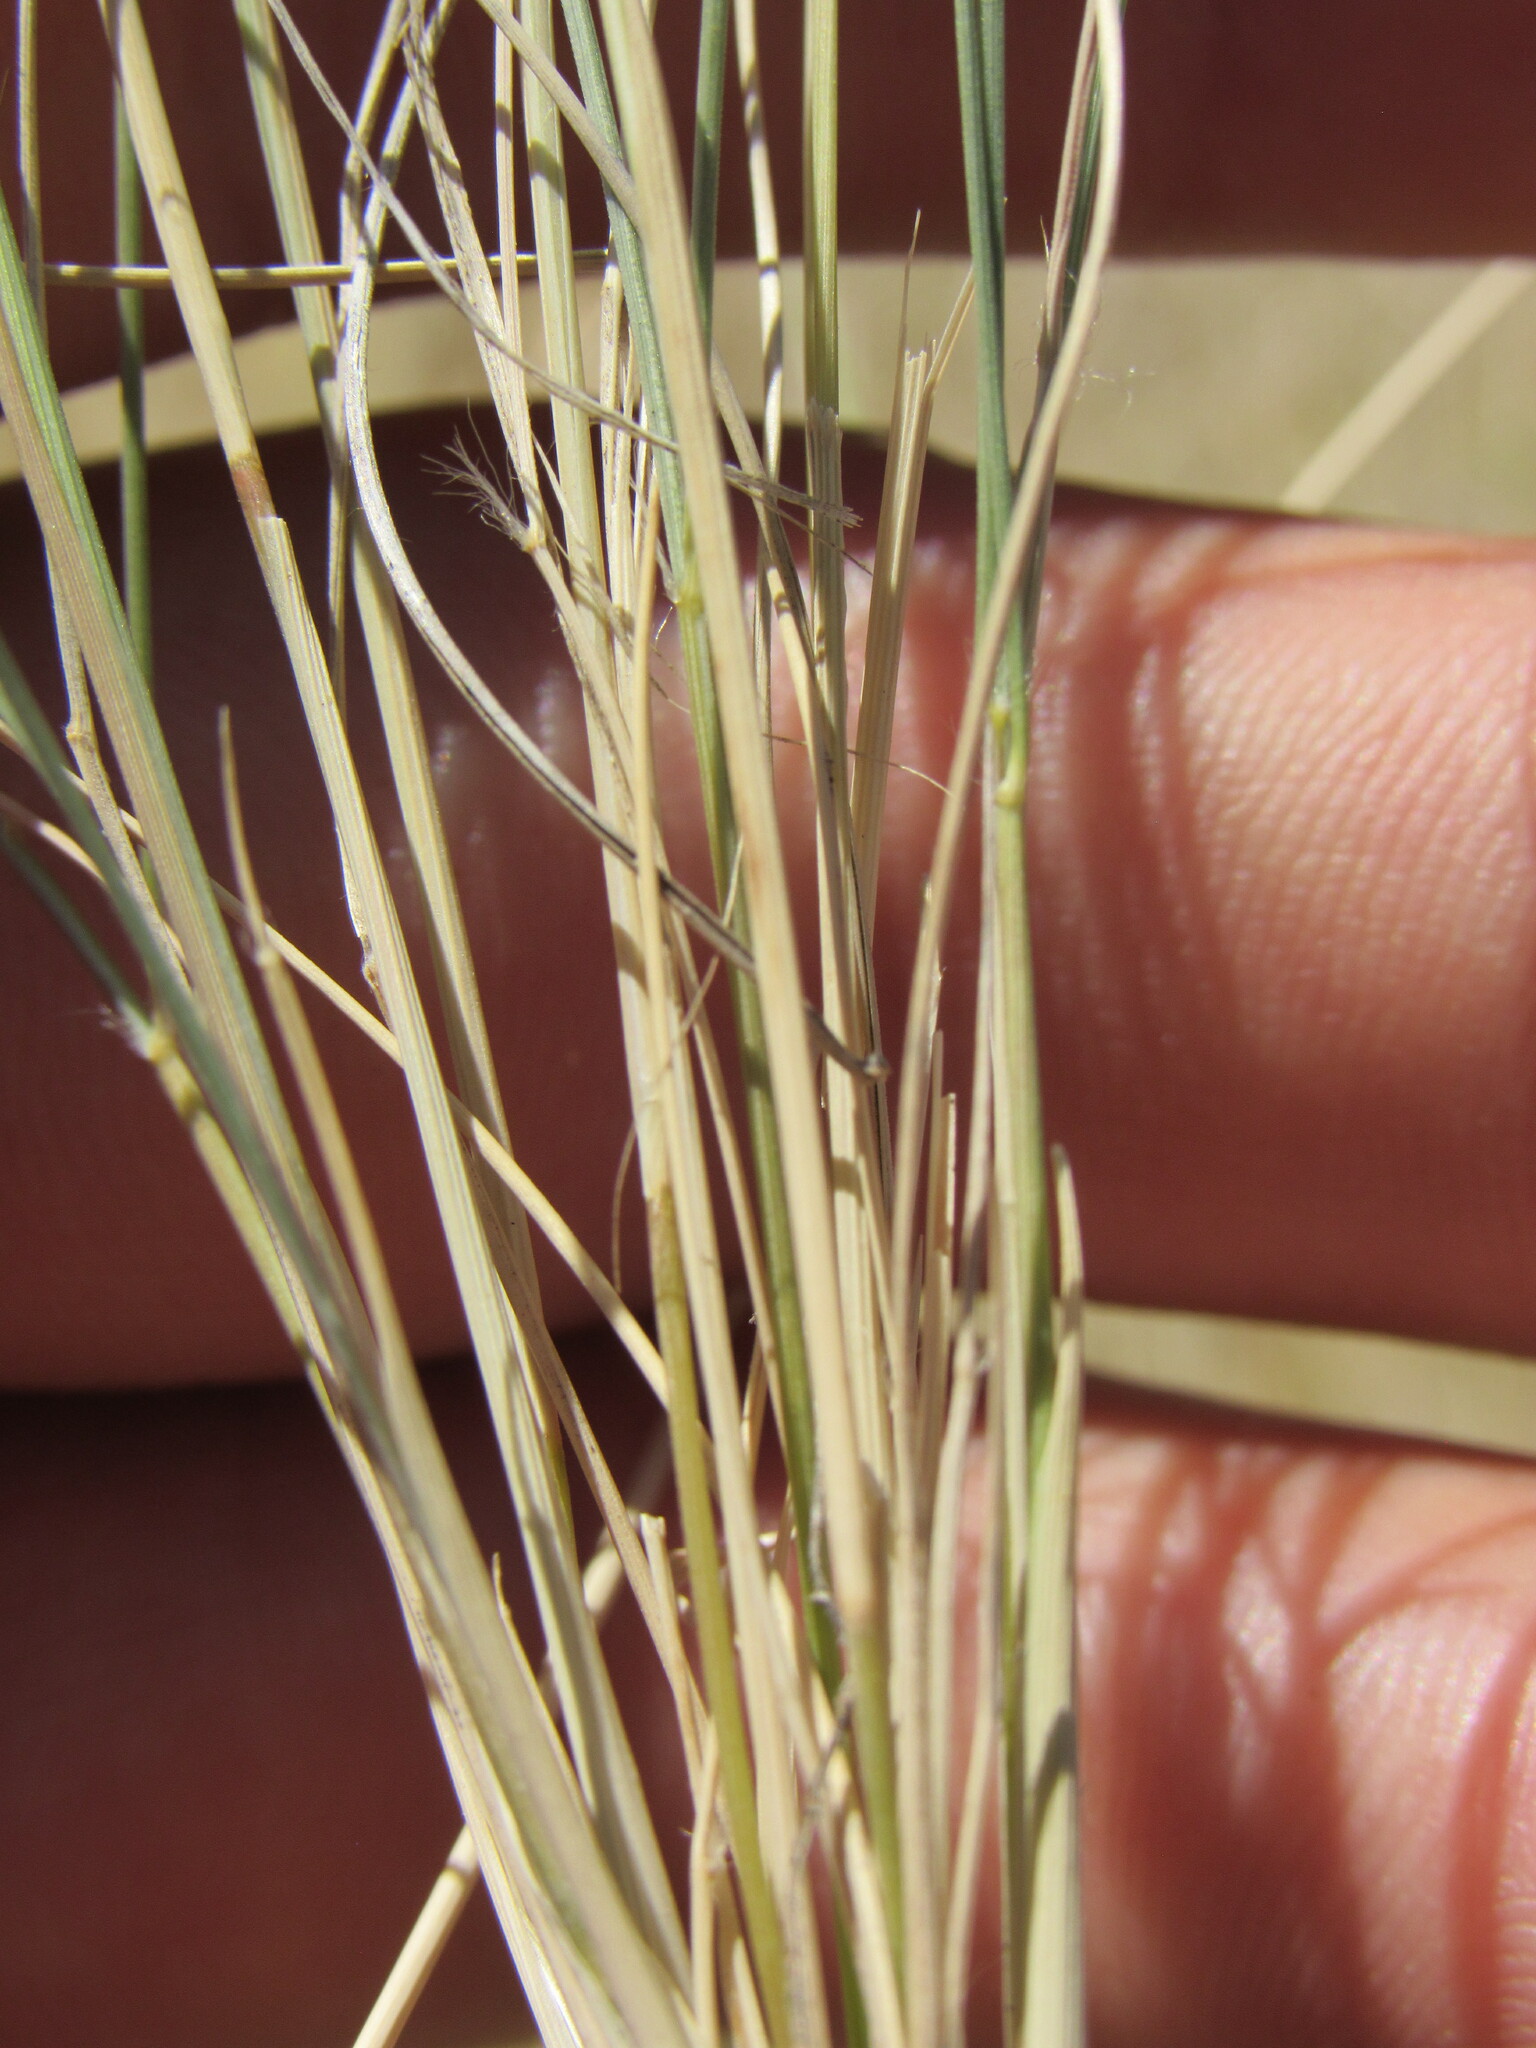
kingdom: Plantae
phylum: Tracheophyta
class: Liliopsida
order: Poales
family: Poaceae
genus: Aristida
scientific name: Aristida purpurea
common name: Purple threeawn
